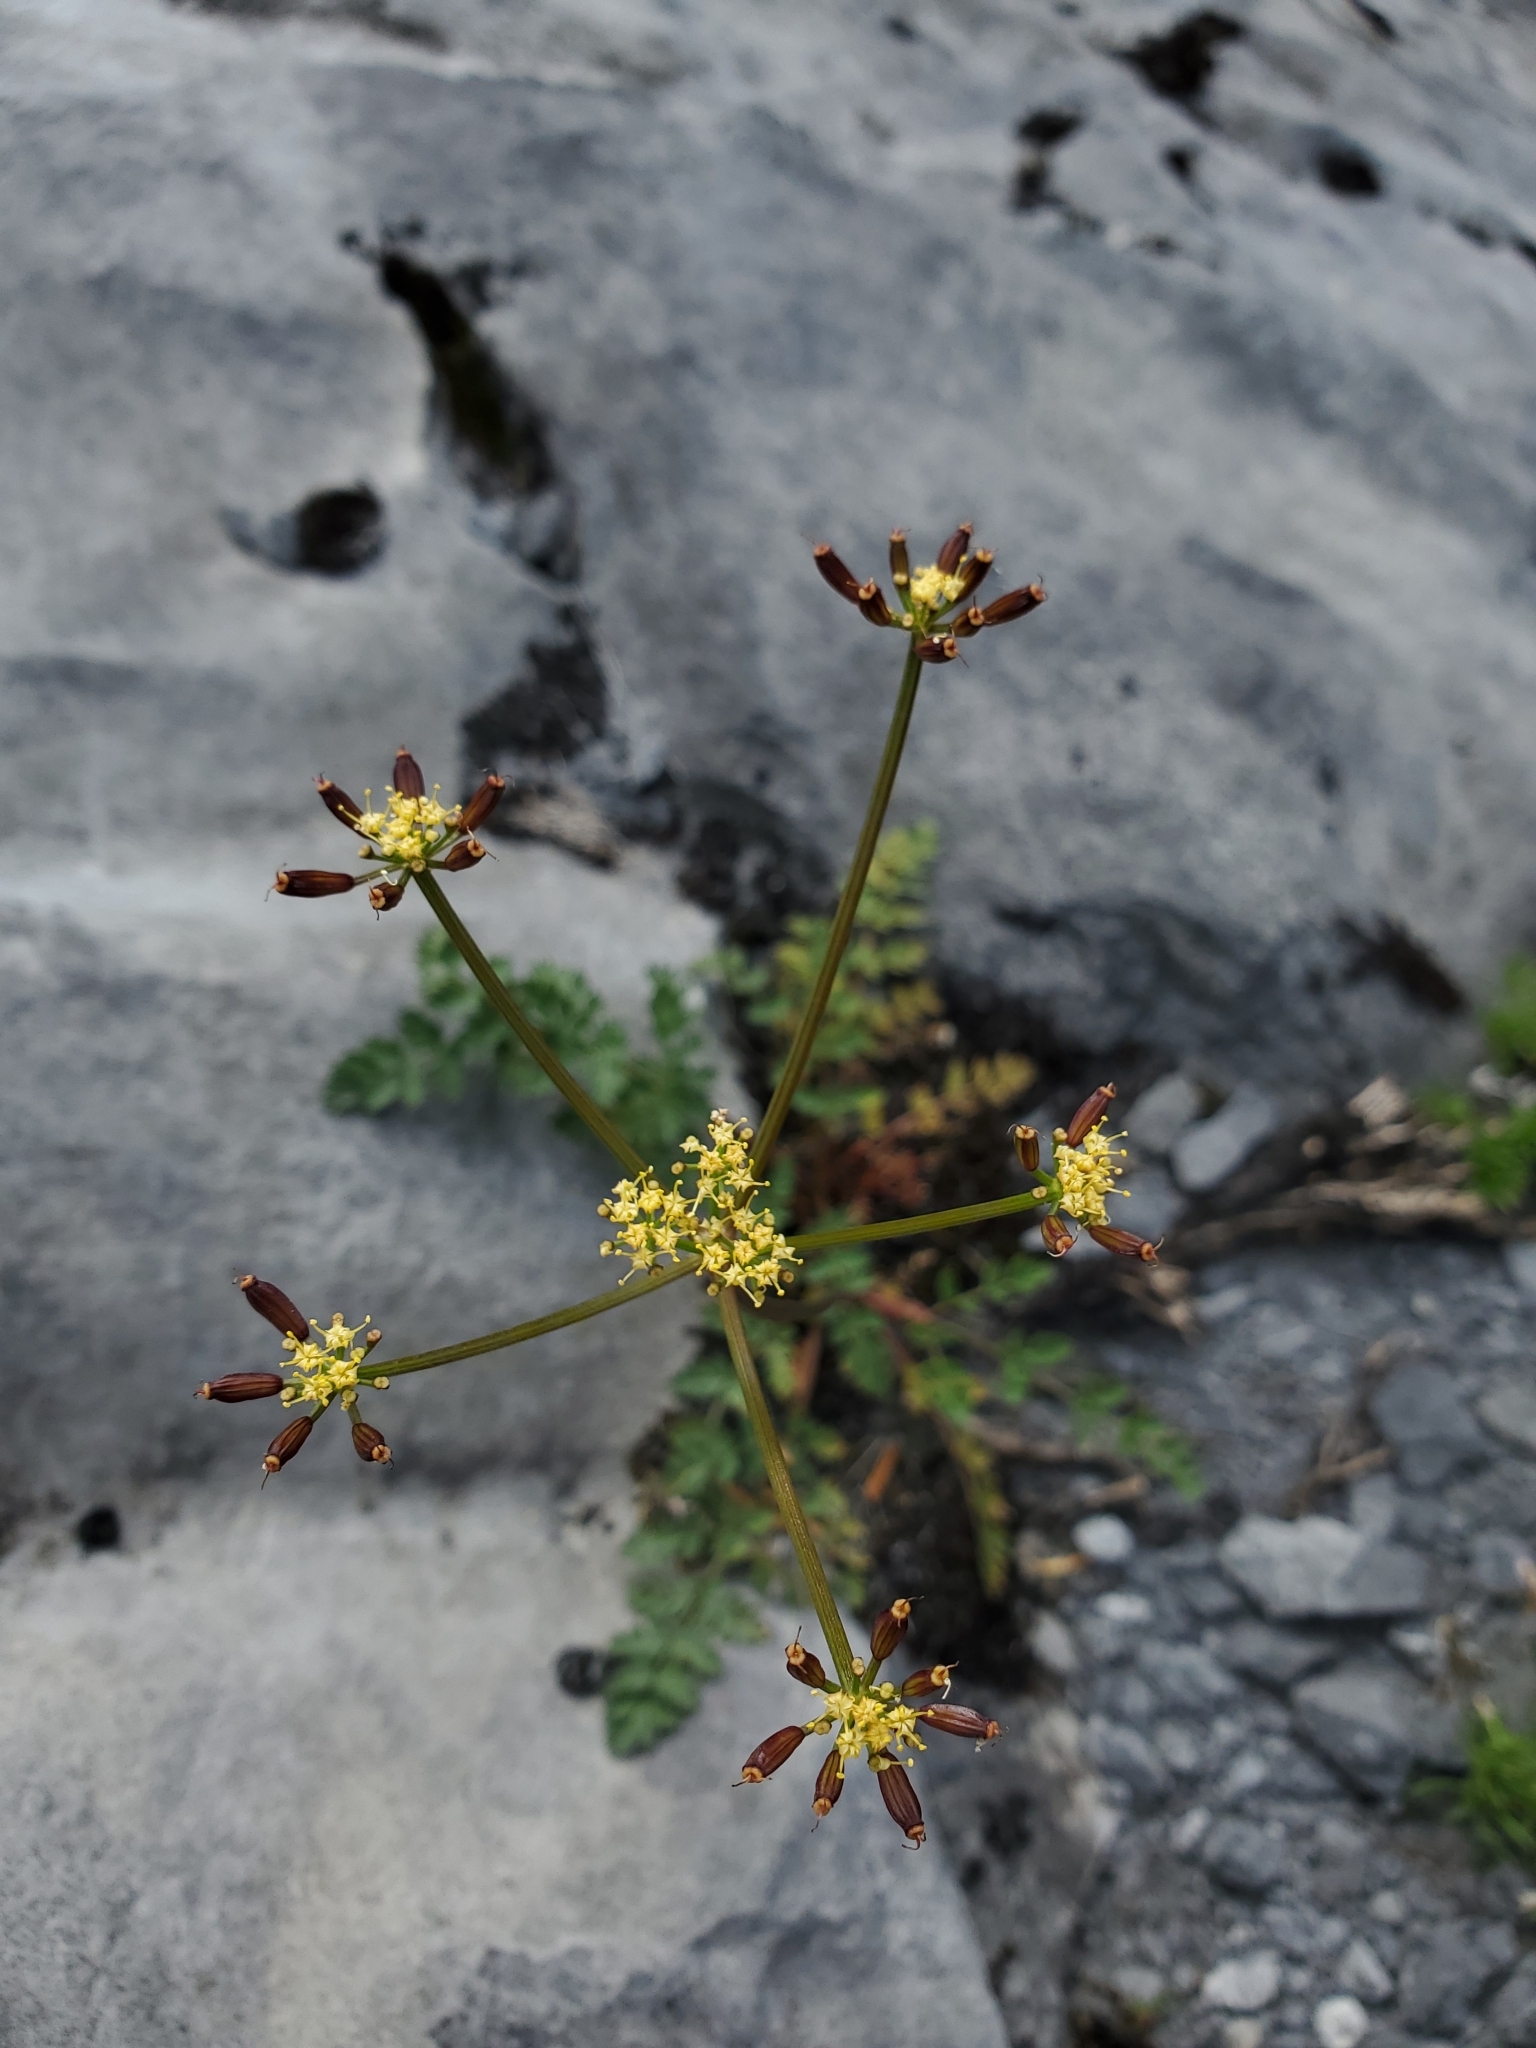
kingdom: Plantae
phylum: Tracheophyta
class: Magnoliopsida
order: Apiales
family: Apiaceae
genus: Lomatium
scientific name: Lomatium martindalei
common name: Cascade desert-parsley
